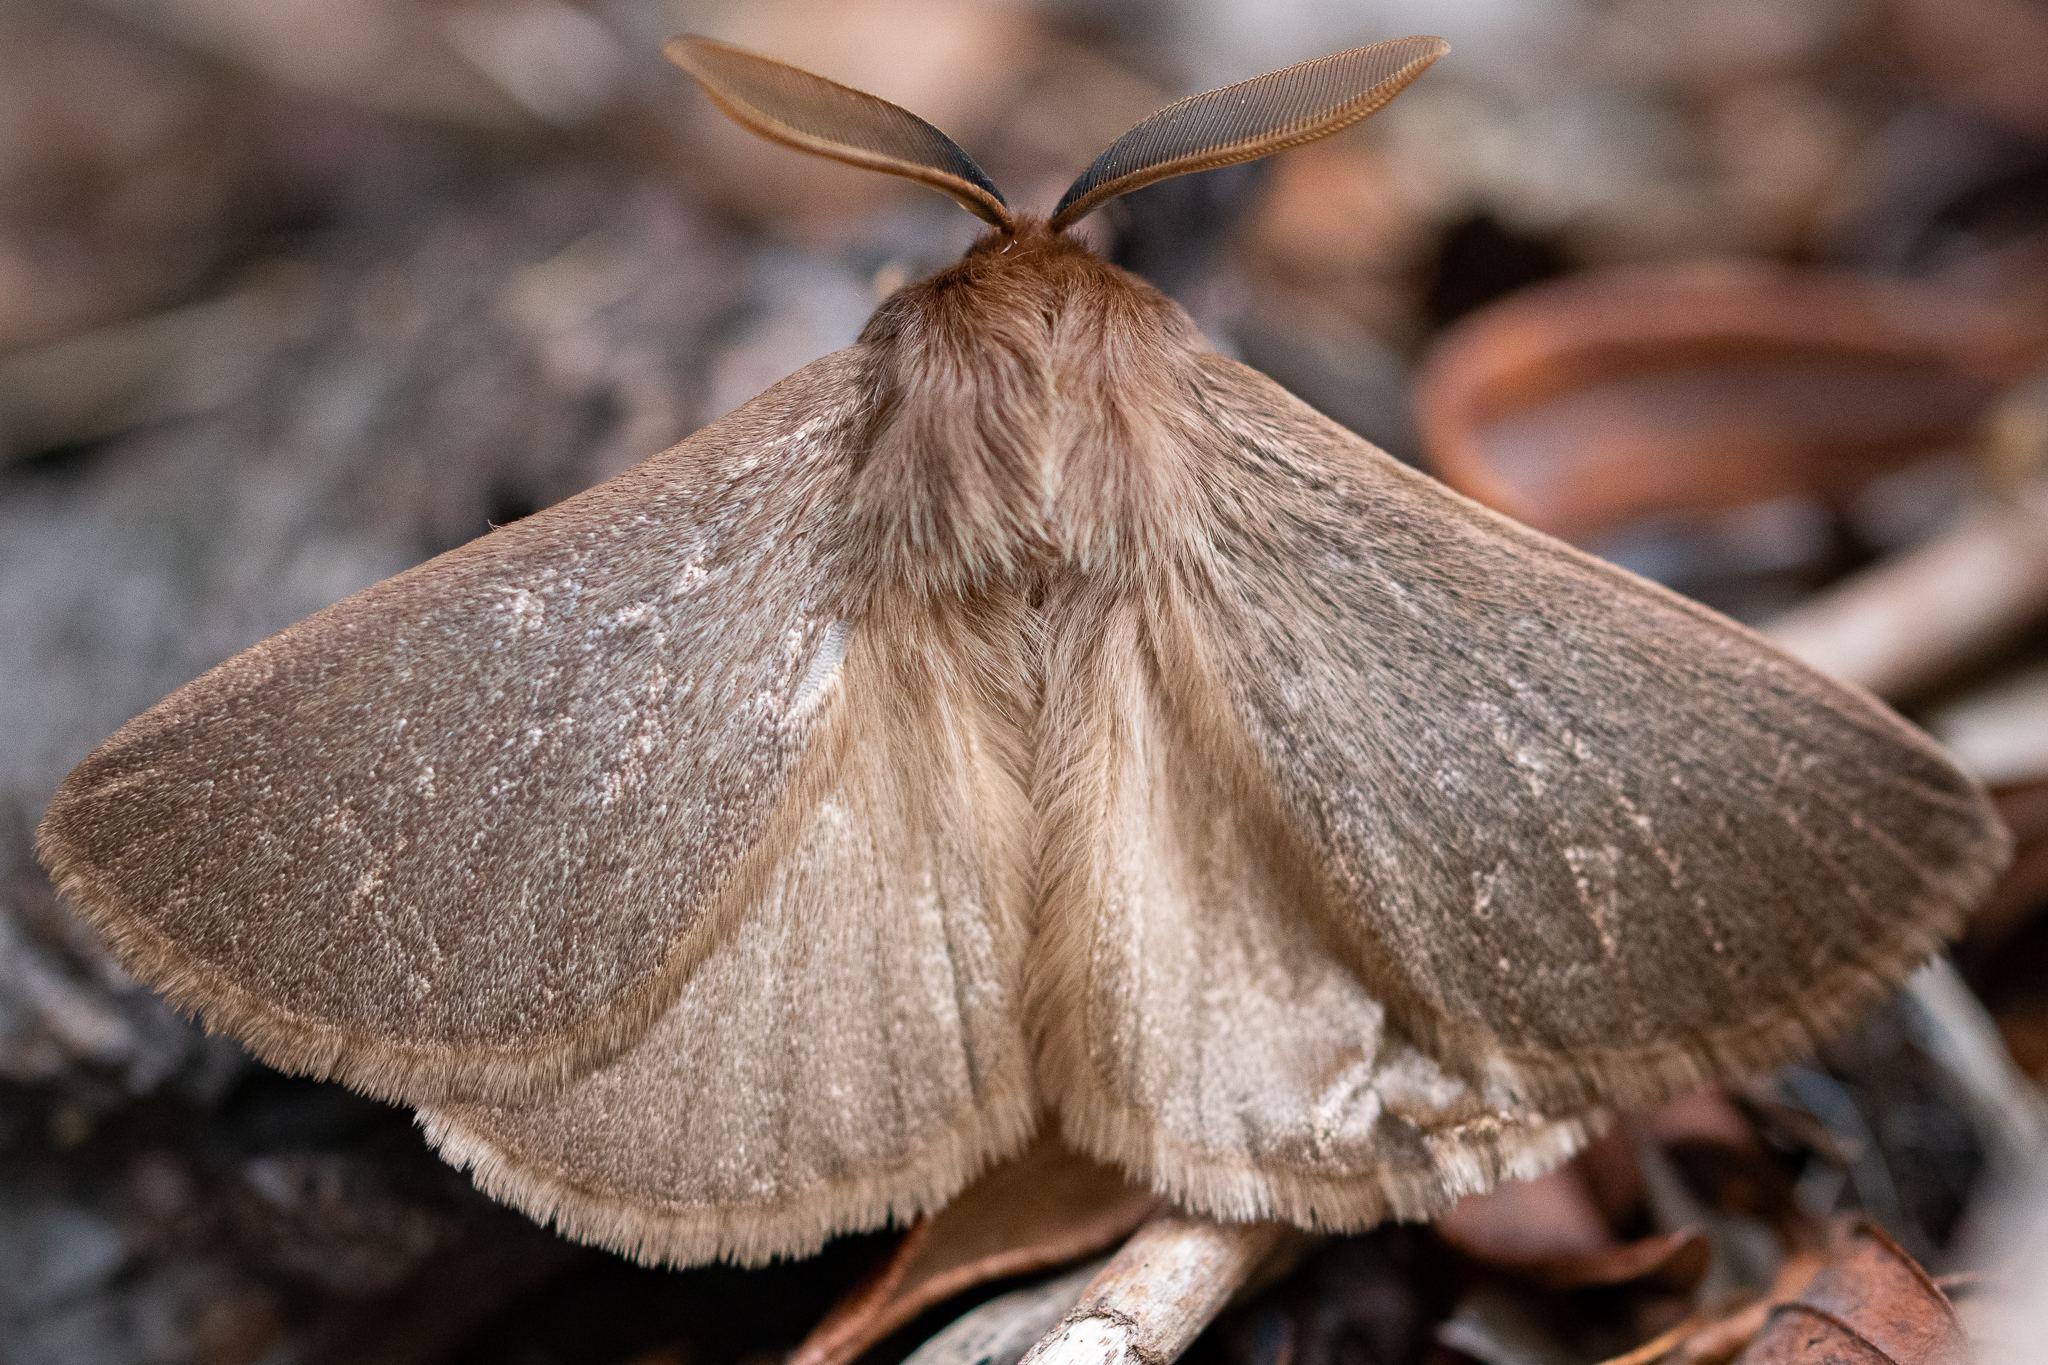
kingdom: Animalia
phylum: Arthropoda
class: Insecta
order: Lepidoptera
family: Eupterotidae
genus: Phyllalia
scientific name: Phyllalia patens
